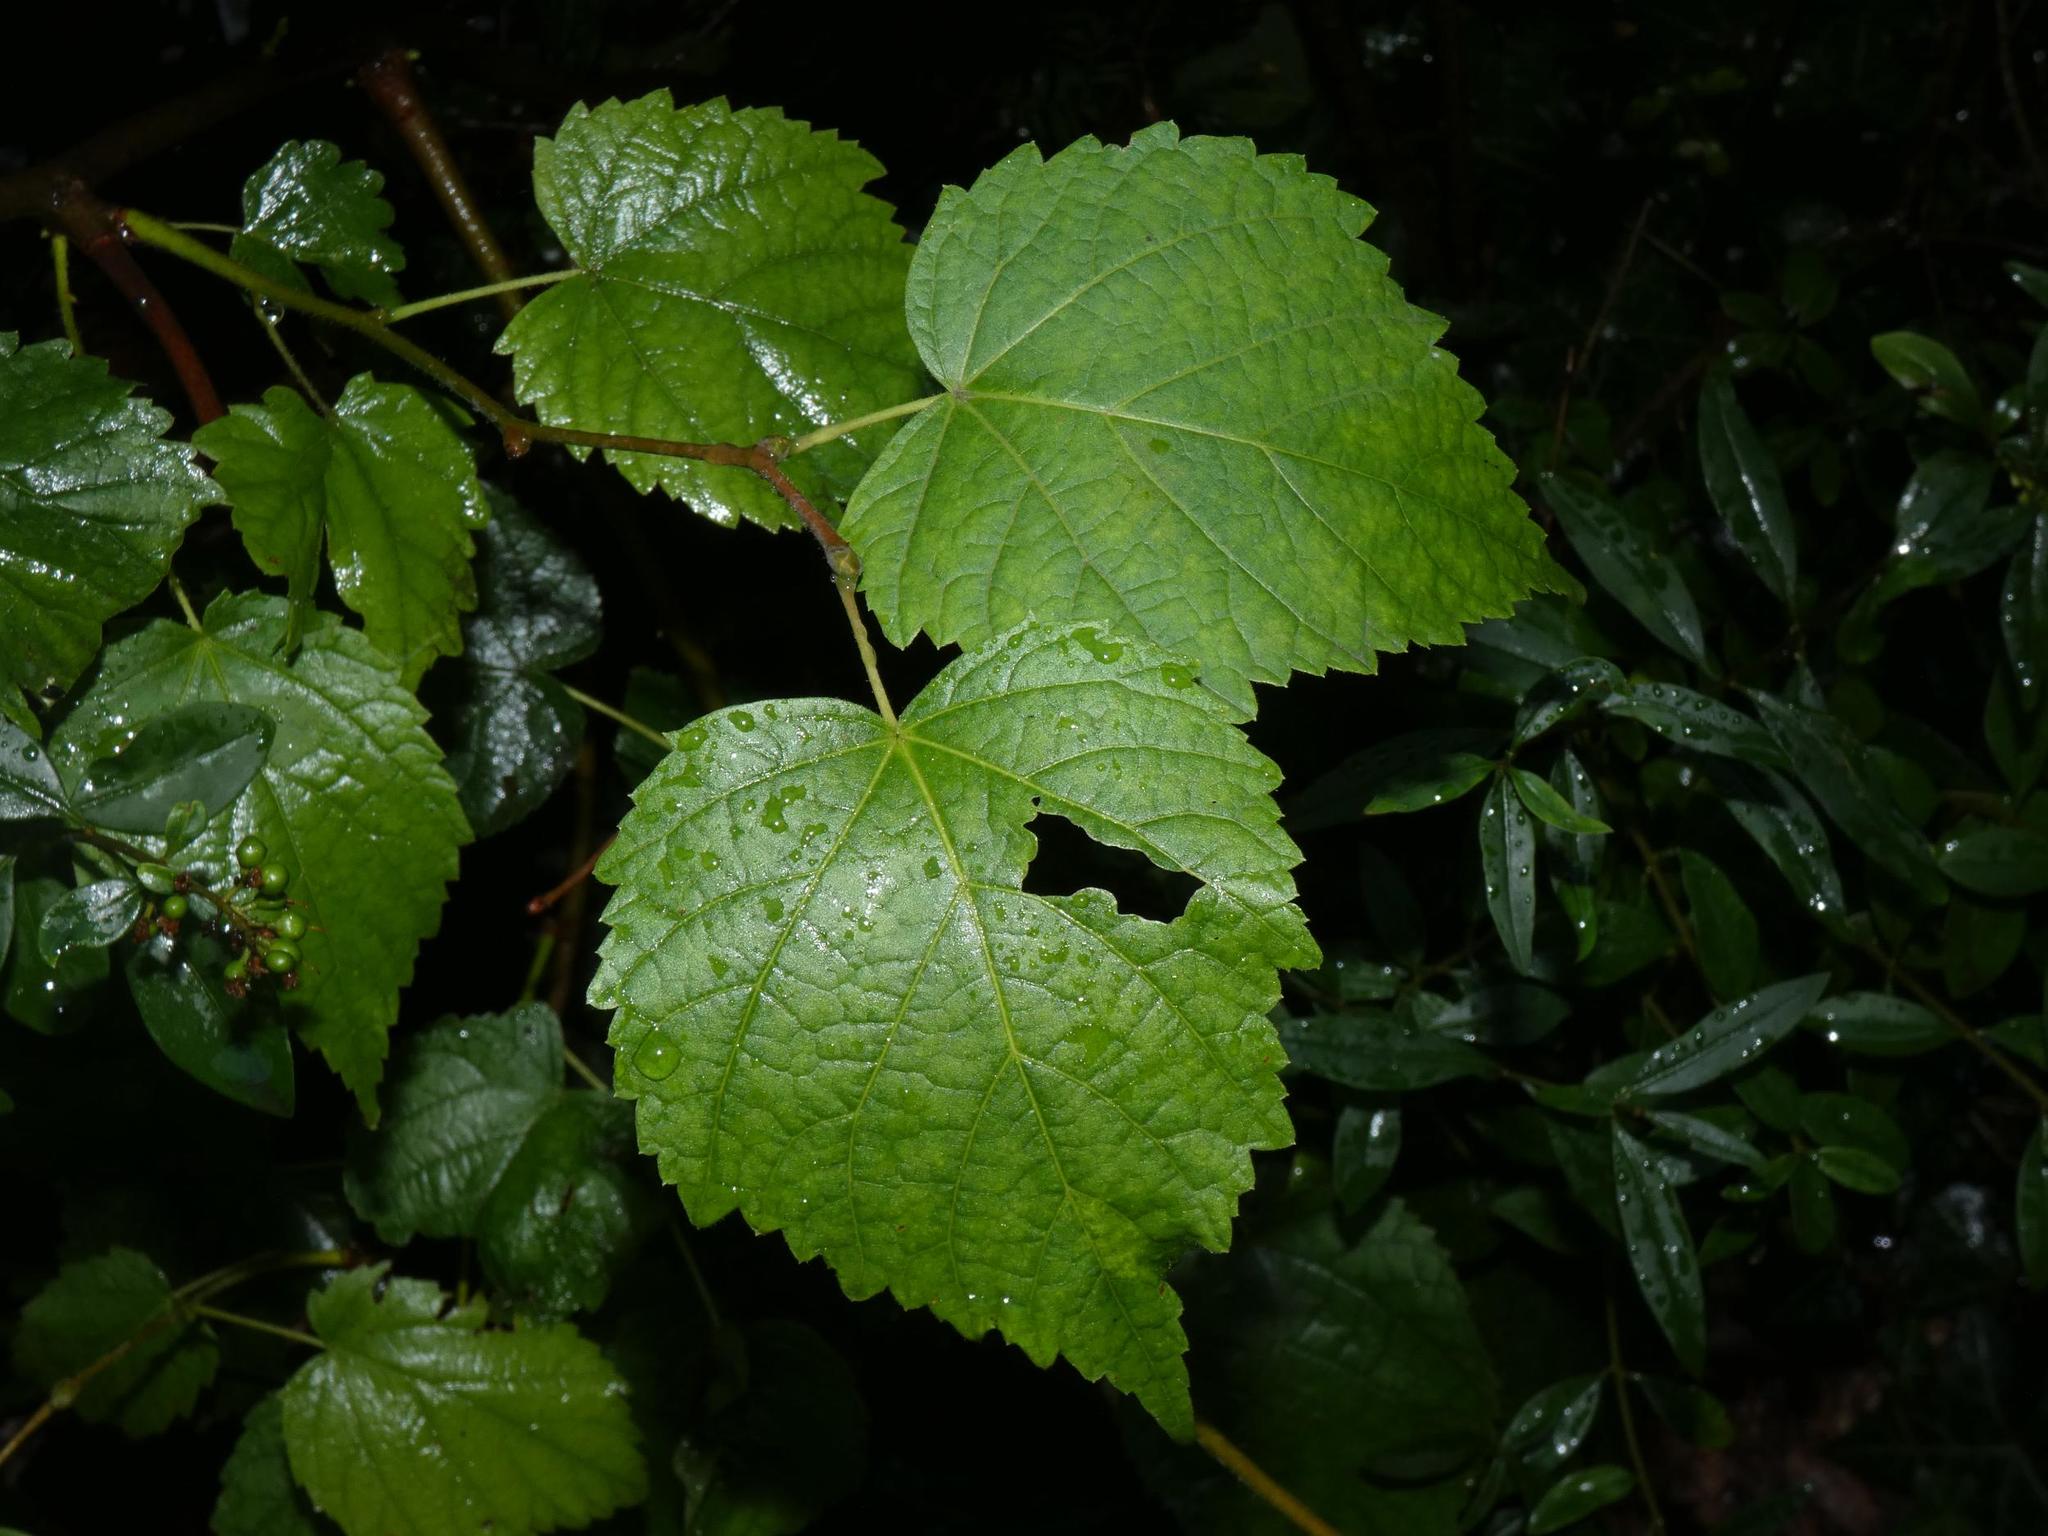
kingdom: Plantae
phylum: Tracheophyta
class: Magnoliopsida
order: Malvales
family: Malvaceae
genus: Tilia
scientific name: Tilia cordata
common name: Small-leaved lime
